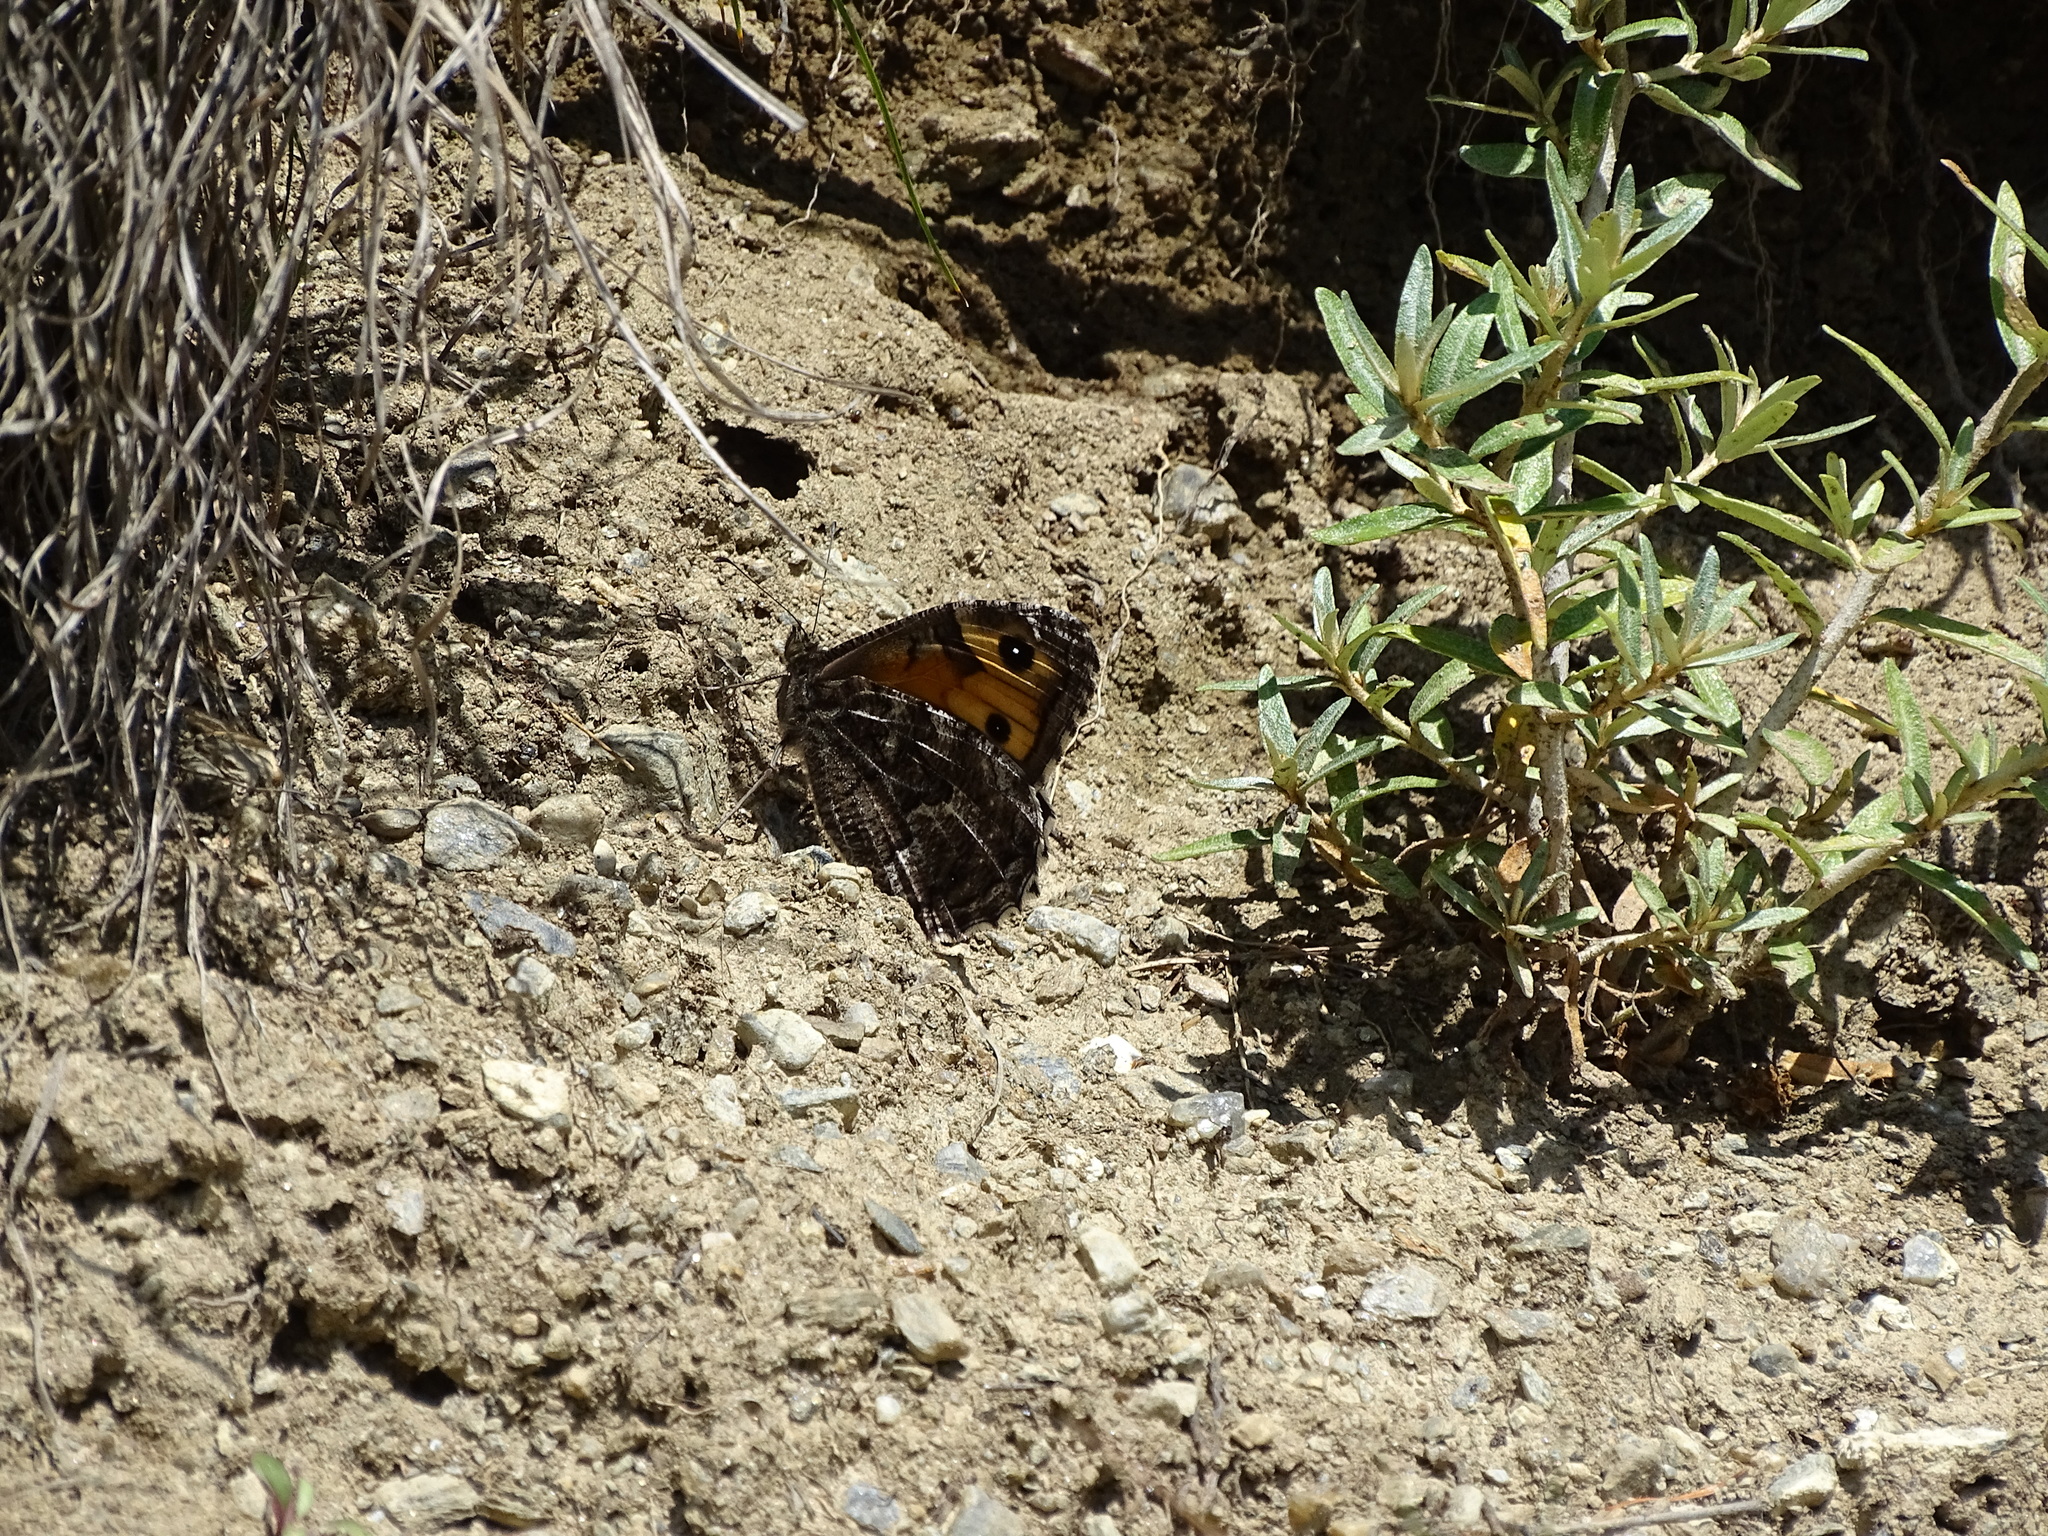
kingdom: Animalia
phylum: Arthropoda
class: Insecta
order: Lepidoptera
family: Nymphalidae
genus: Hipparchia
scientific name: Hipparchia semele
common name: Grayling
